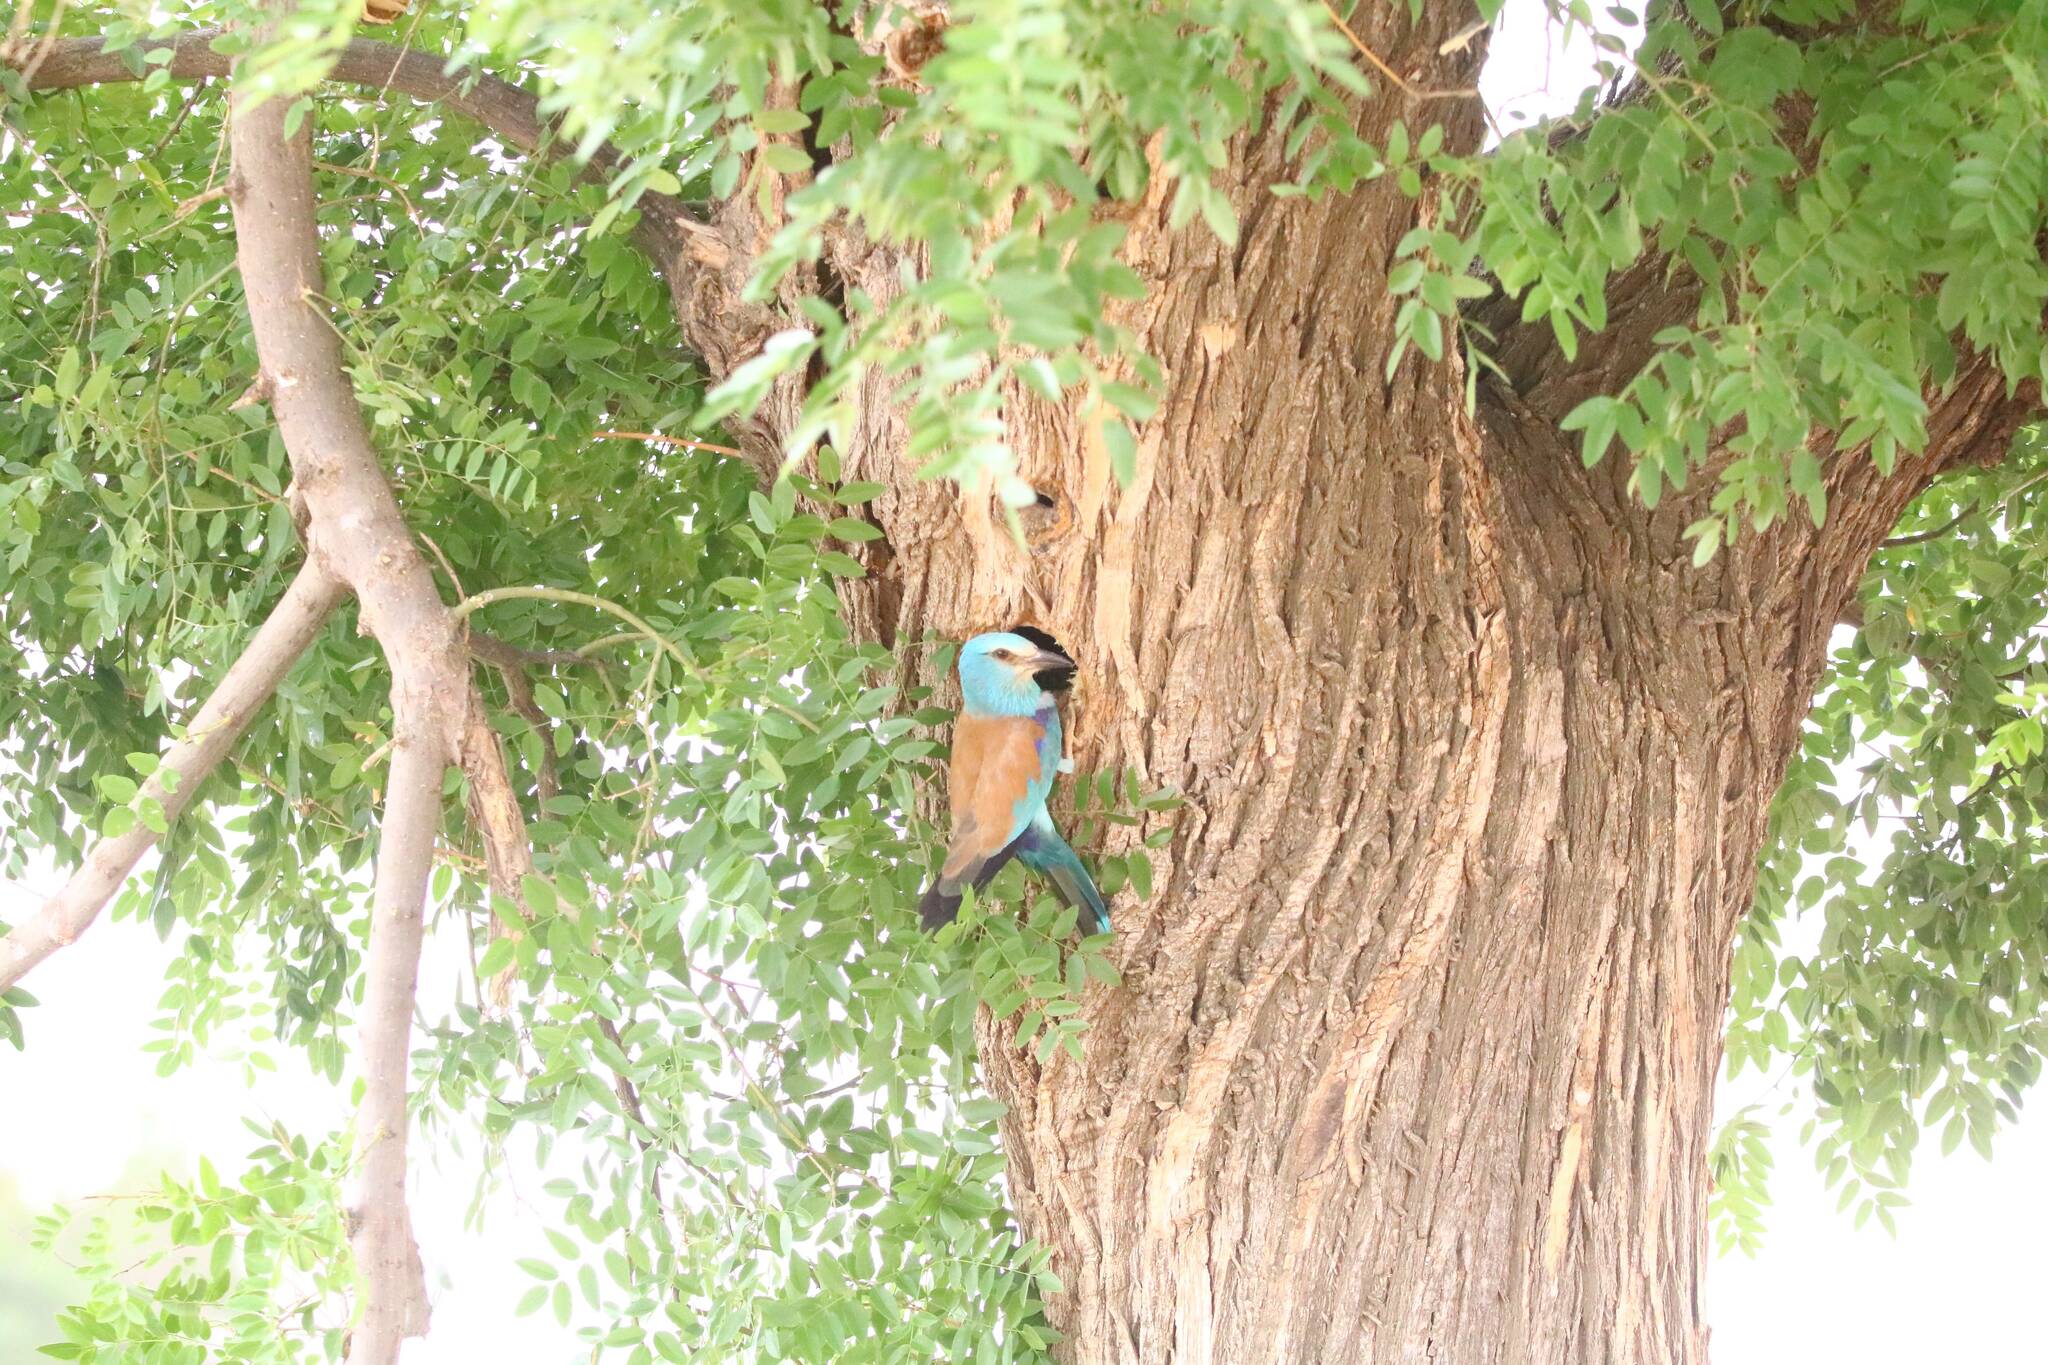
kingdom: Animalia
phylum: Chordata
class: Aves
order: Coraciiformes
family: Coraciidae
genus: Coracias
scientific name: Coracias garrulus
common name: European roller
